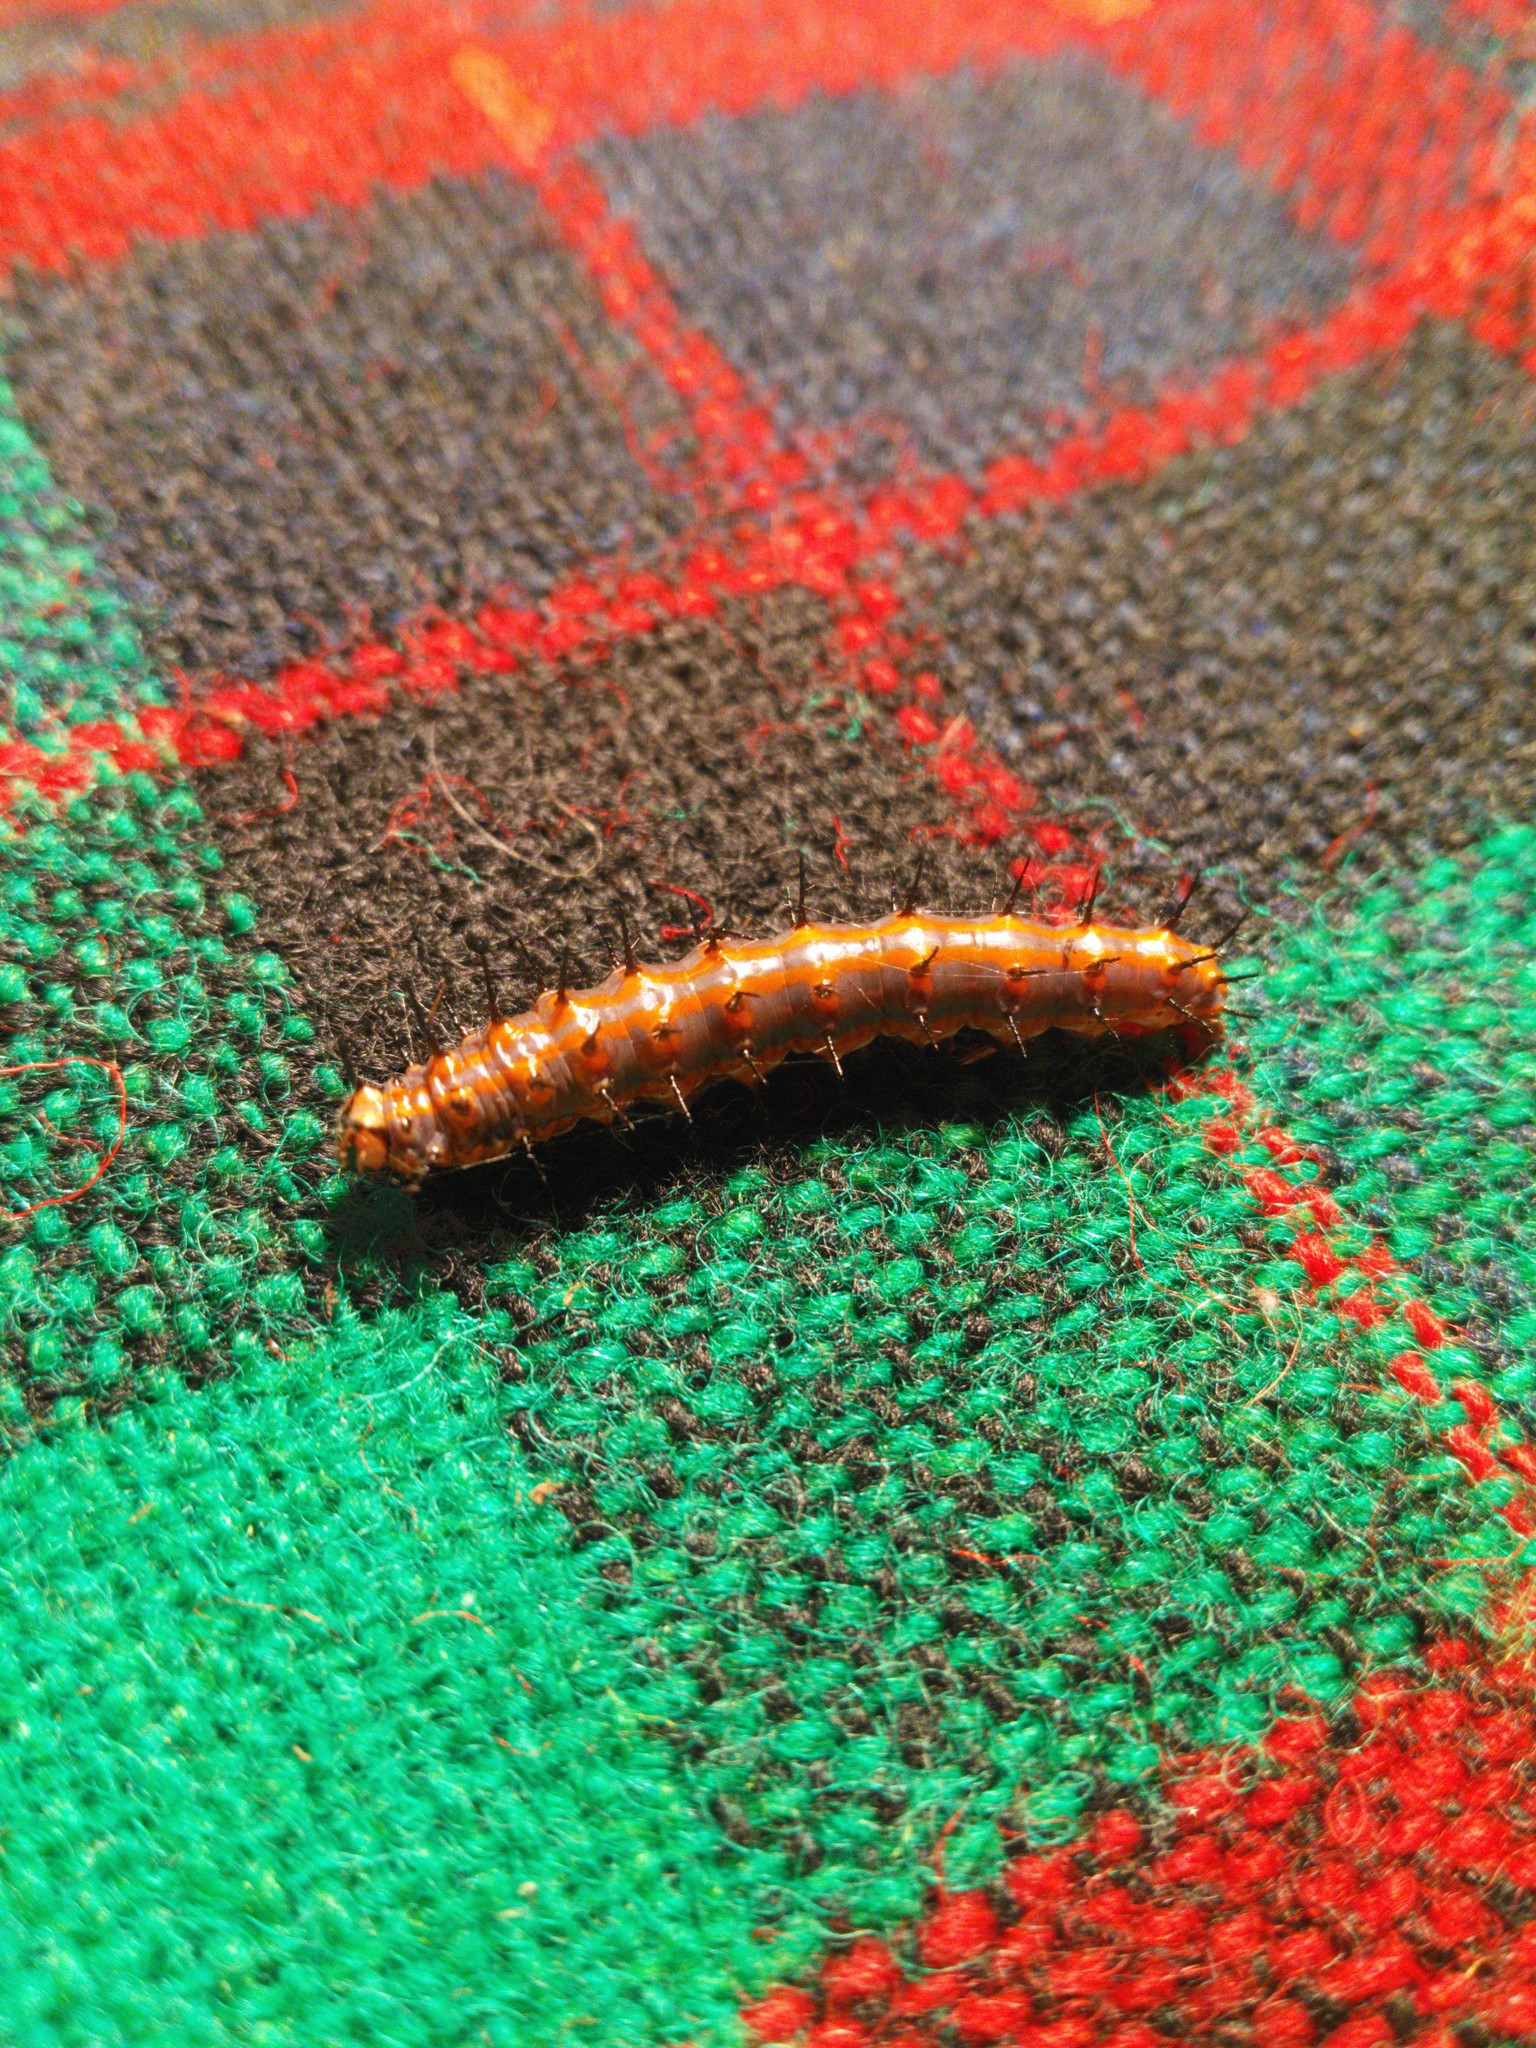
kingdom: Animalia
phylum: Arthropoda
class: Insecta
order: Lepidoptera
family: Nymphalidae
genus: Dione
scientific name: Dione vanillae
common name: Gulf fritillary
